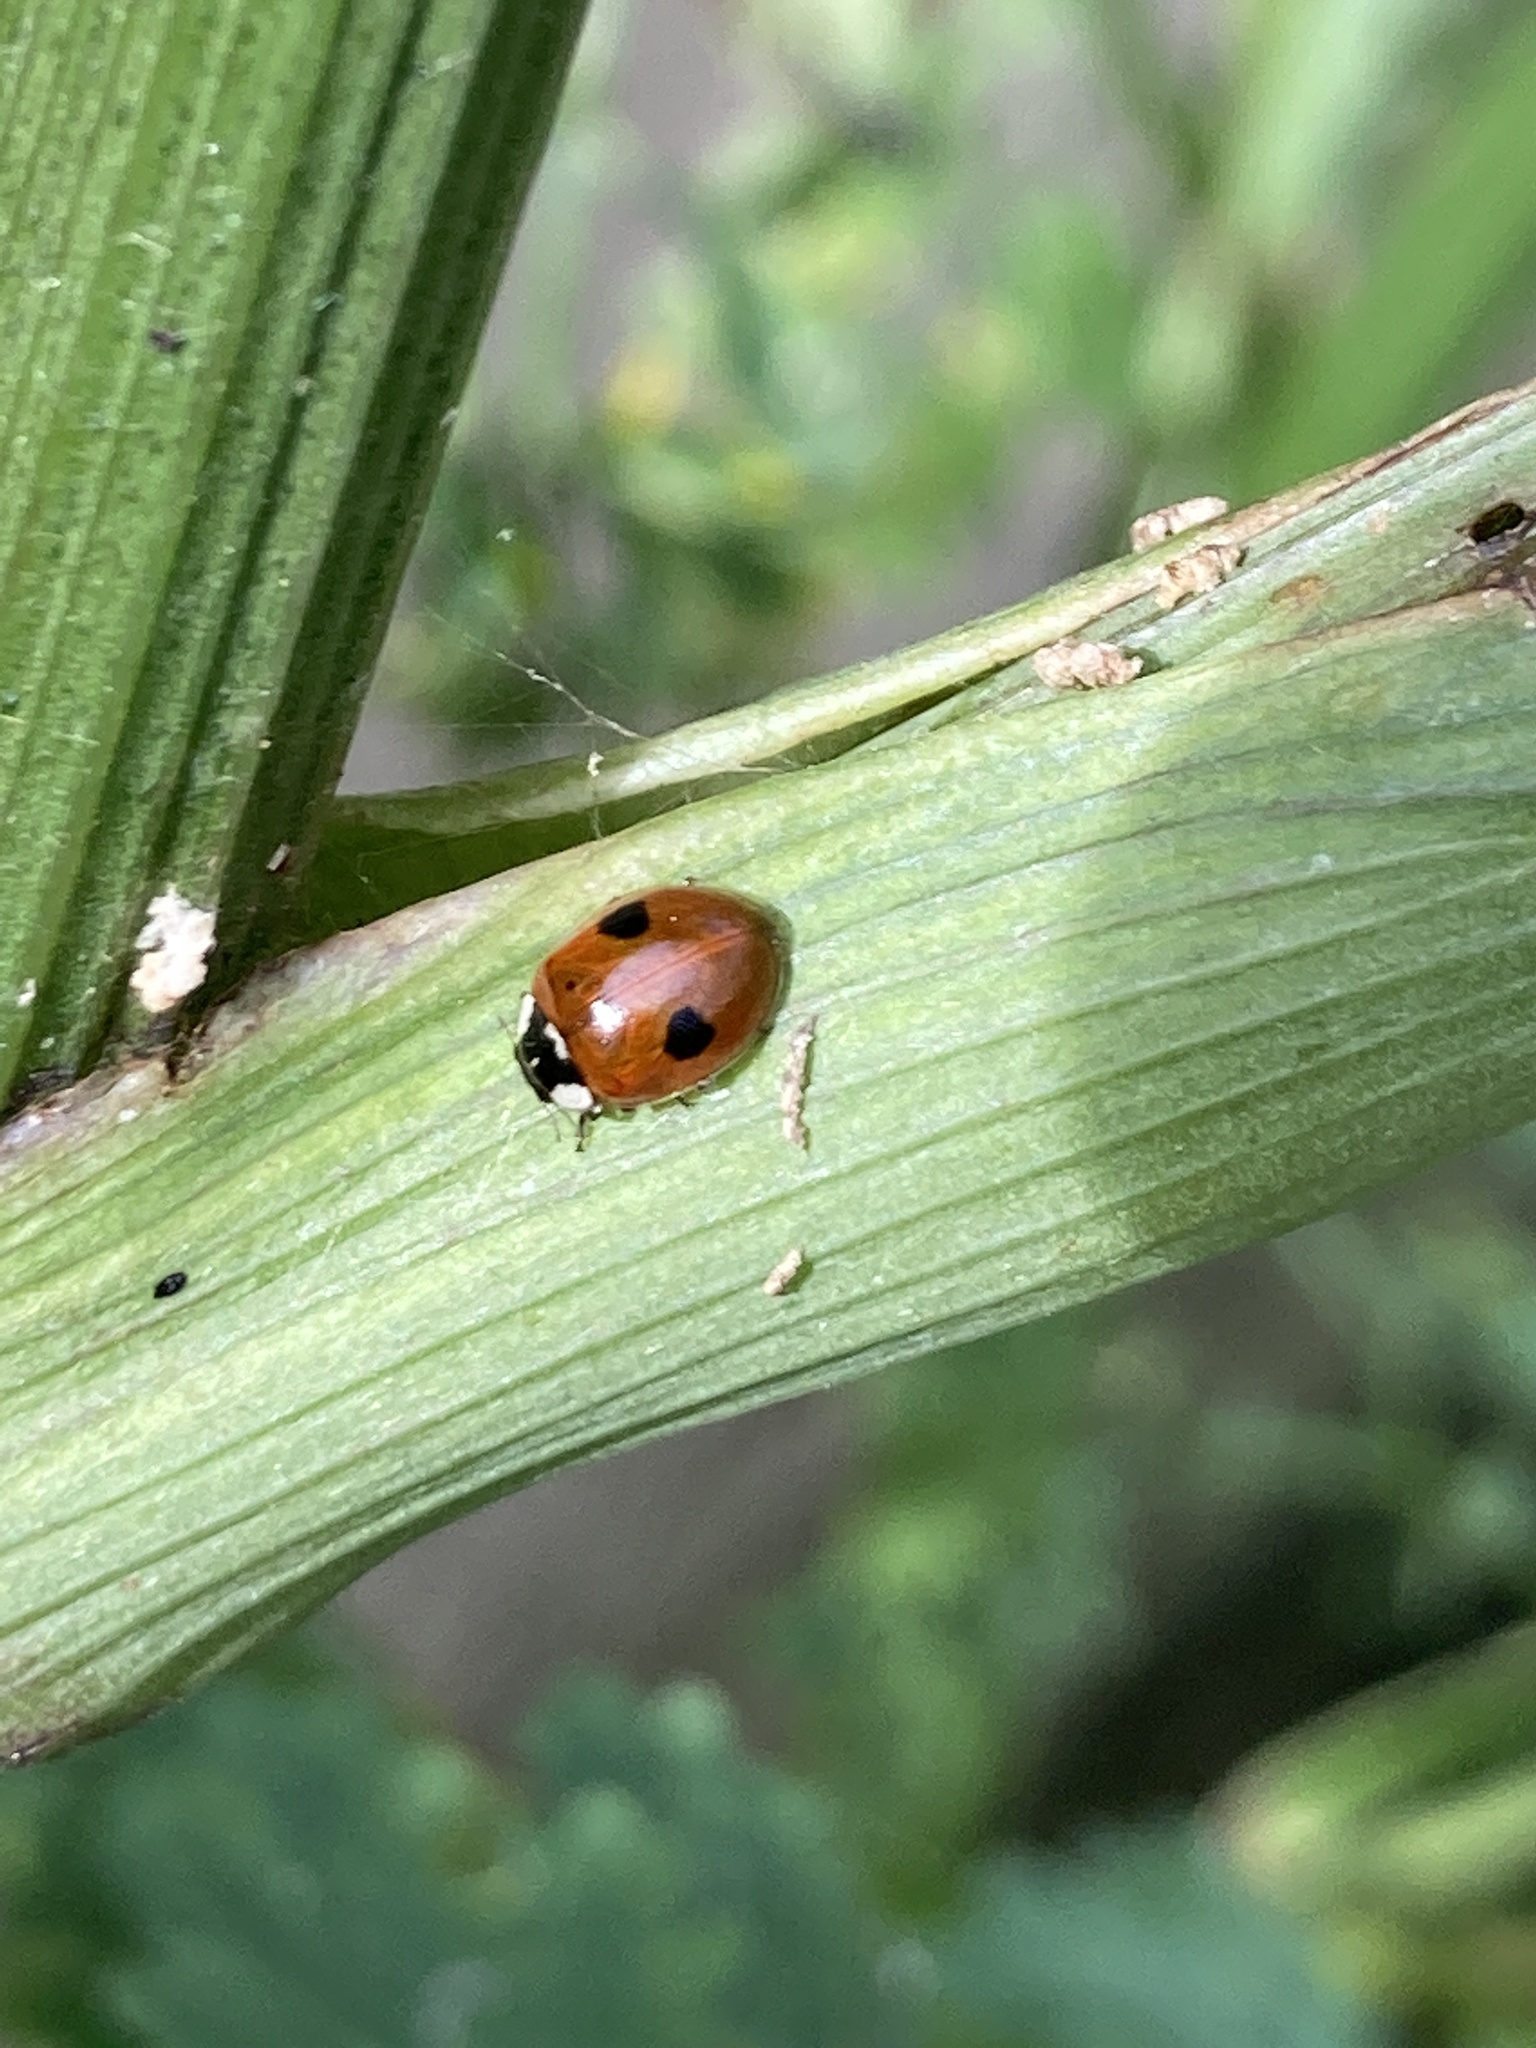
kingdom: Animalia
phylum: Arthropoda
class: Insecta
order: Coleoptera
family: Coccinellidae
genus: Adalia
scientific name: Adalia bipunctata
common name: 2-spot ladybird
